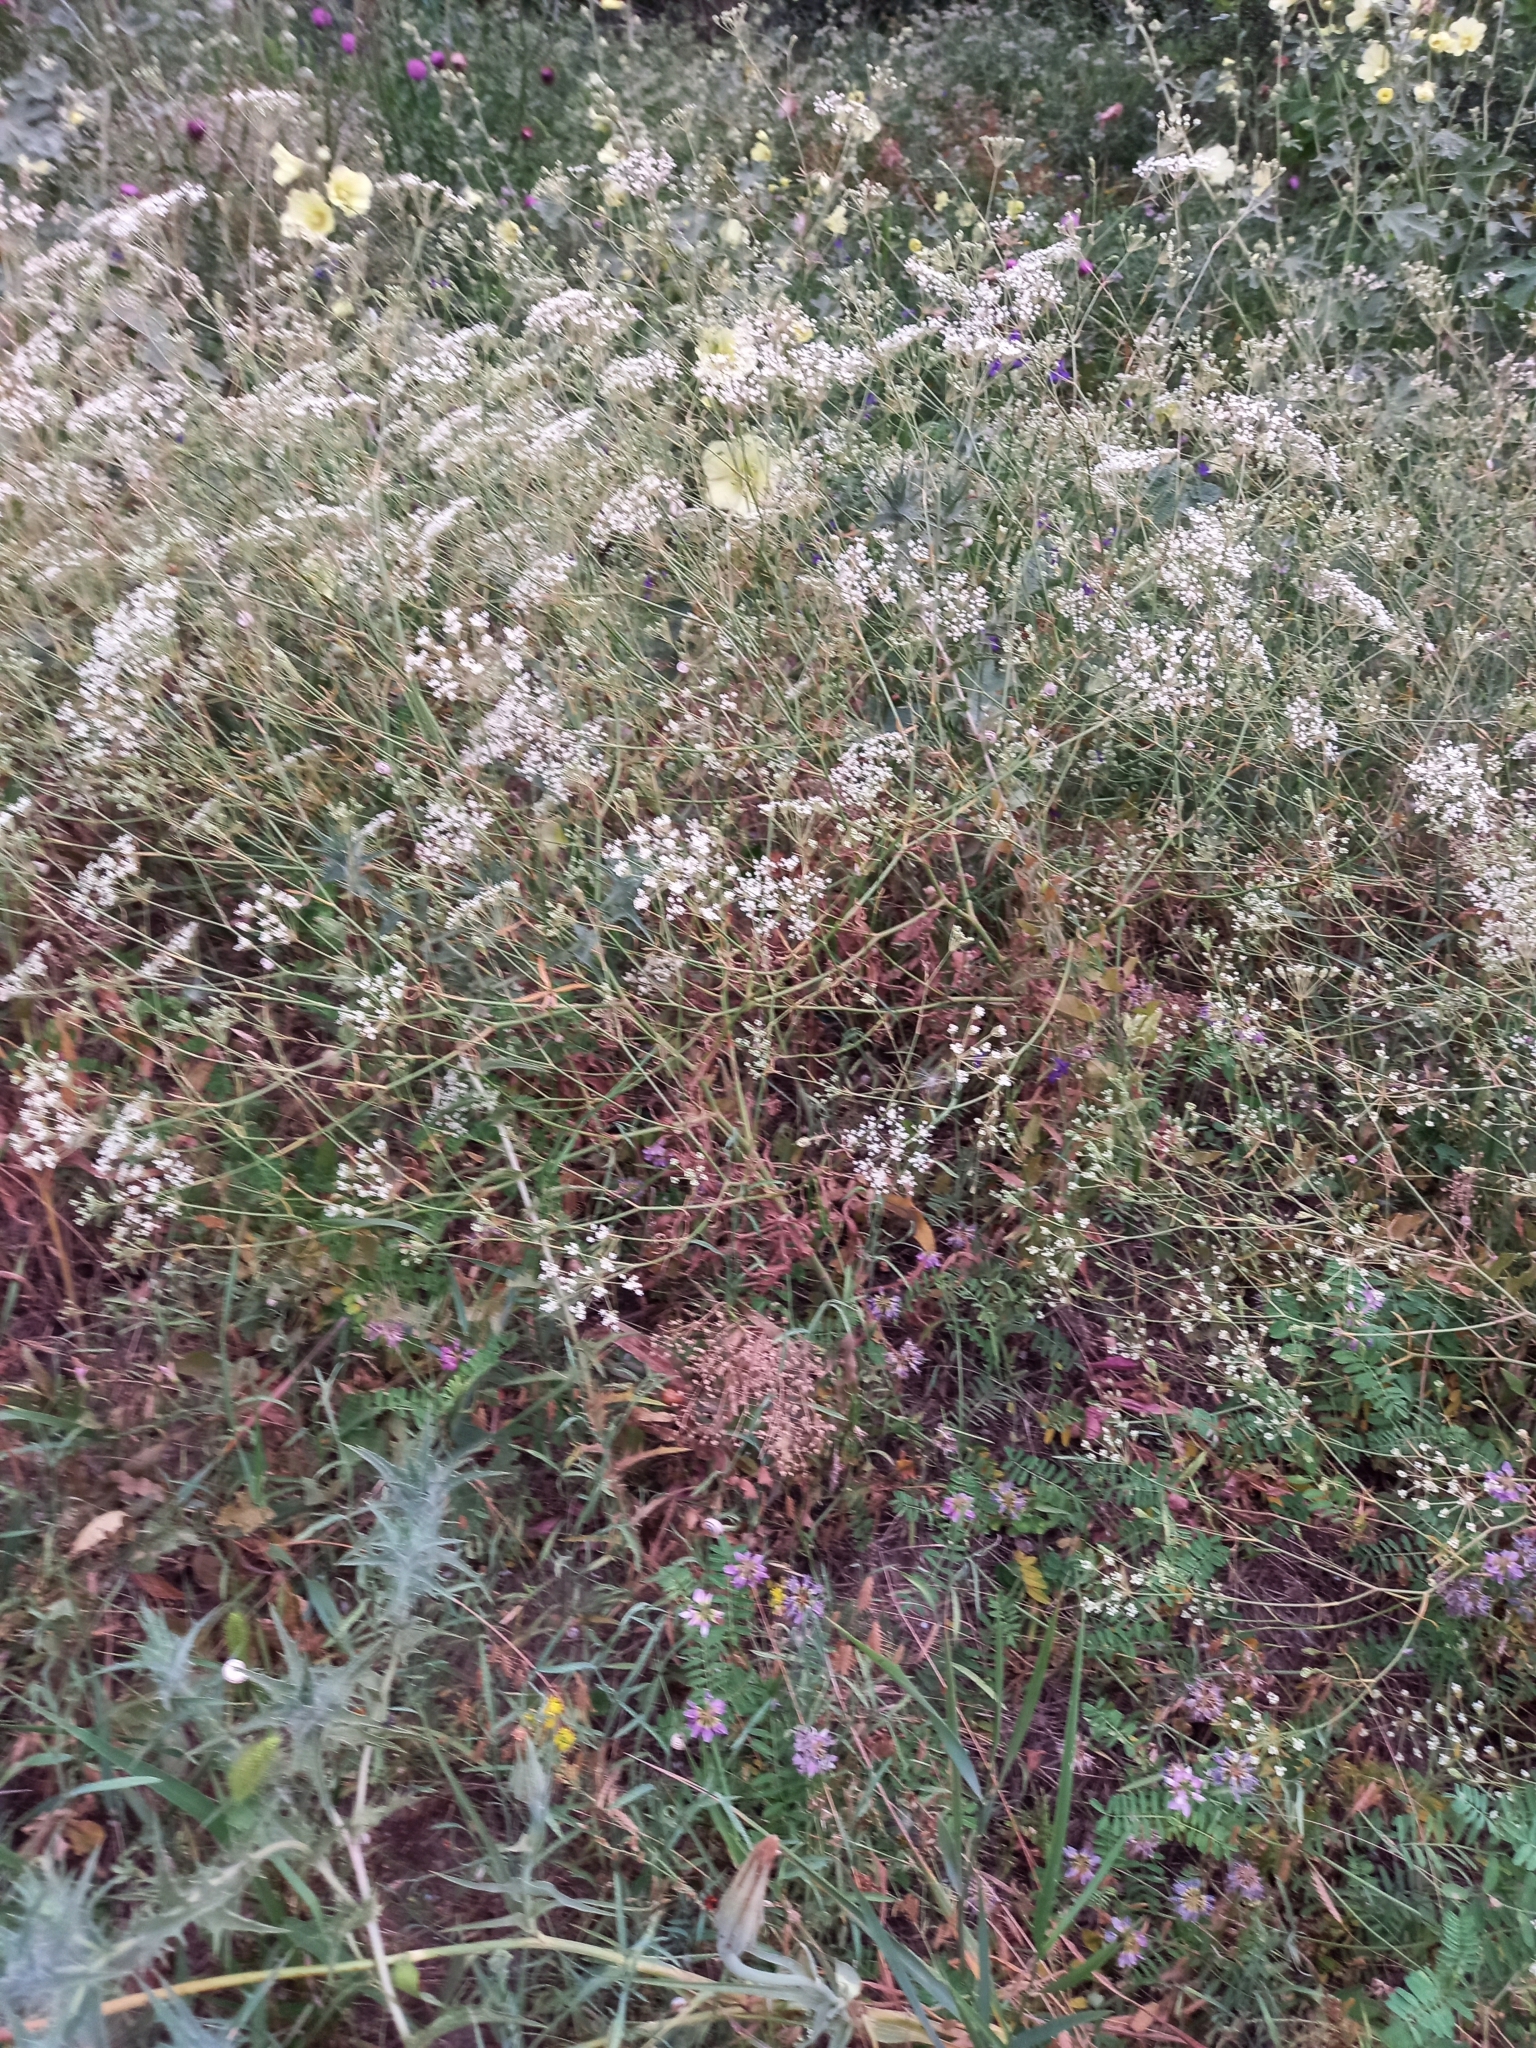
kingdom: Plantae
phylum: Tracheophyta
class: Magnoliopsida
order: Apiales
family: Apiaceae
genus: Falcaria
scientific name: Falcaria vulgaris
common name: Longleaf
